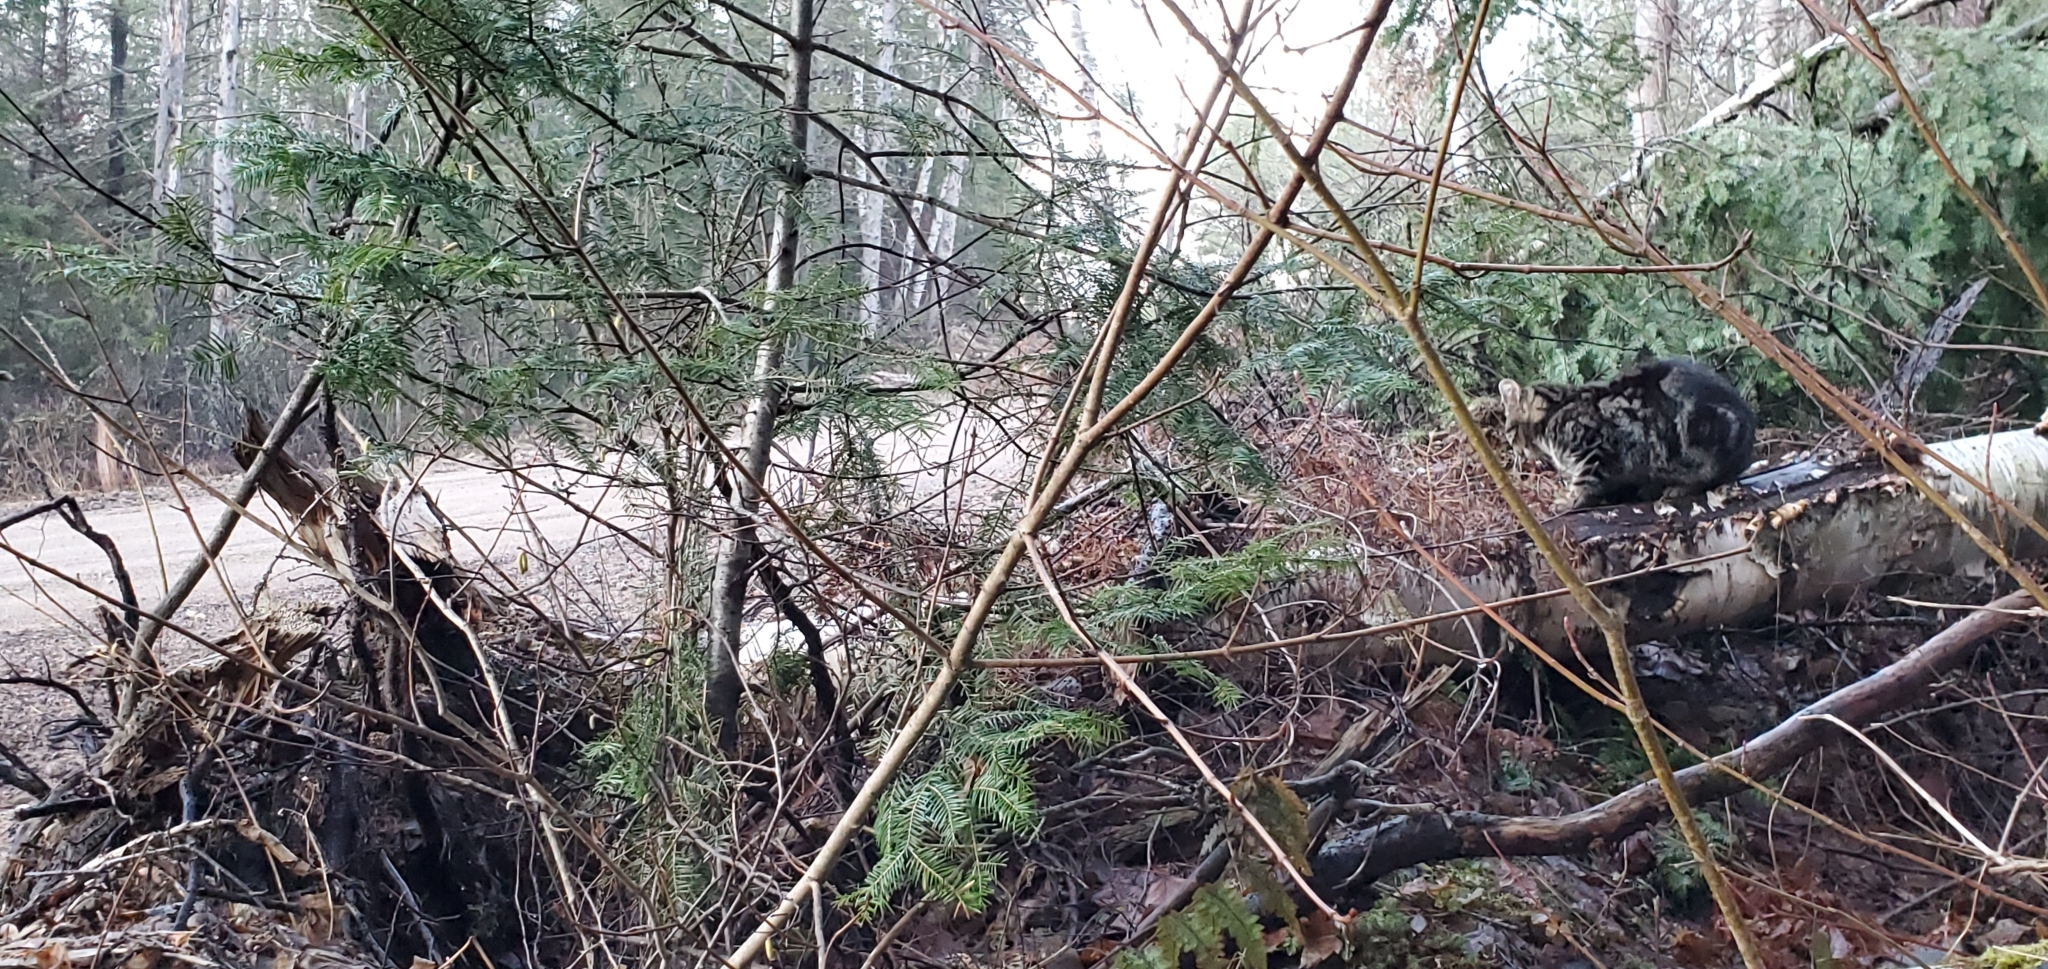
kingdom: Animalia
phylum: Chordata
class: Mammalia
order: Carnivora
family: Felidae
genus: Felis
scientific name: Felis catus
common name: Domestic cat
